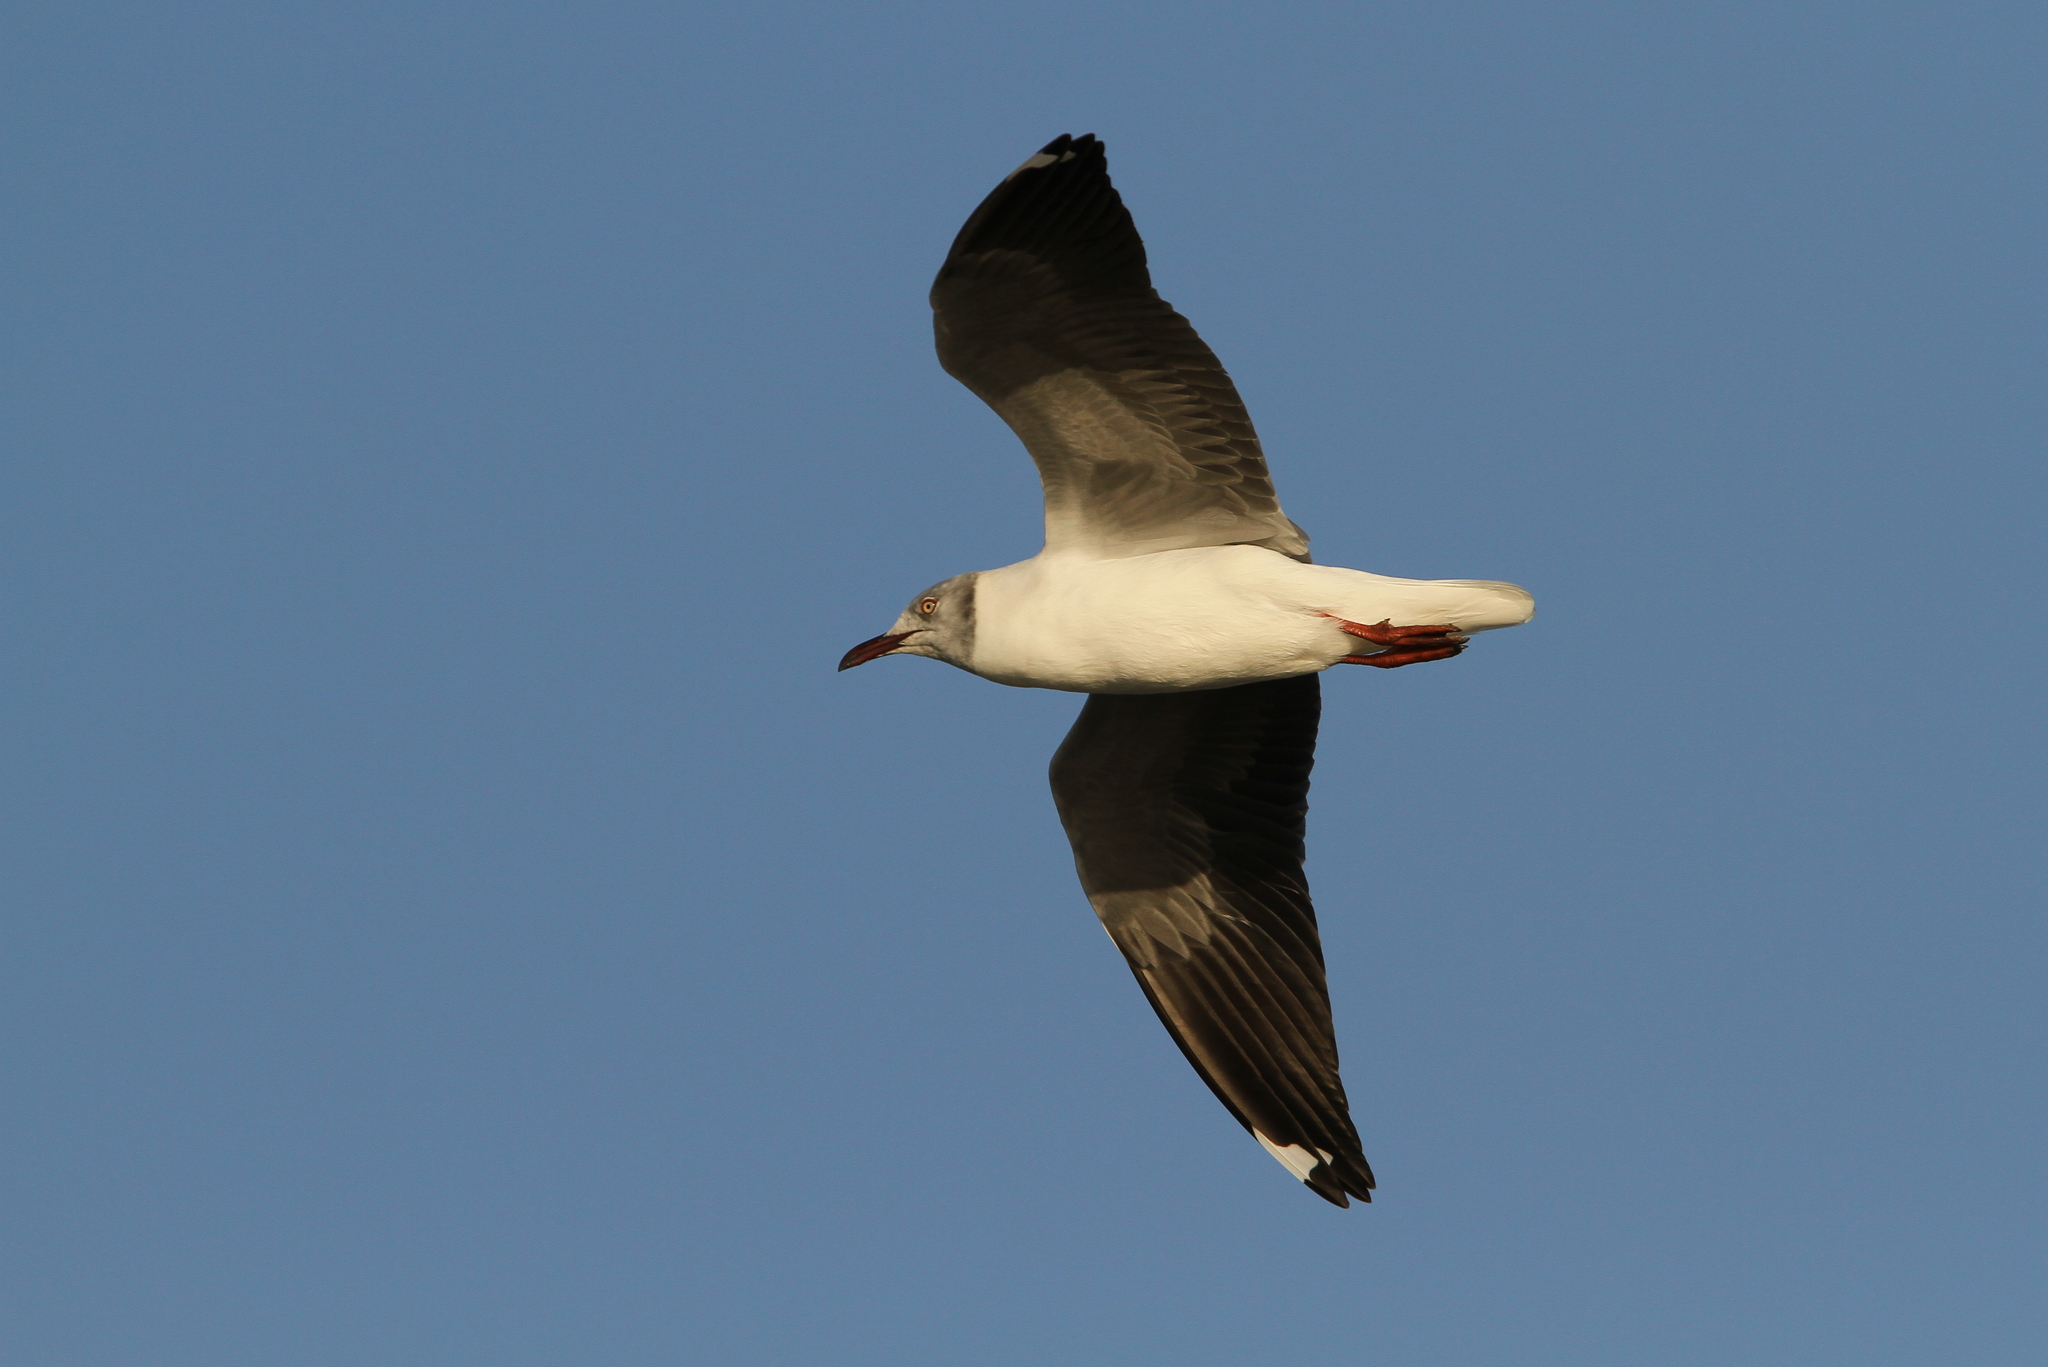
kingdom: Animalia
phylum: Chordata
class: Aves
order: Charadriiformes
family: Laridae
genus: Chroicocephalus
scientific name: Chroicocephalus cirrocephalus
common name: Grey-headed gull
